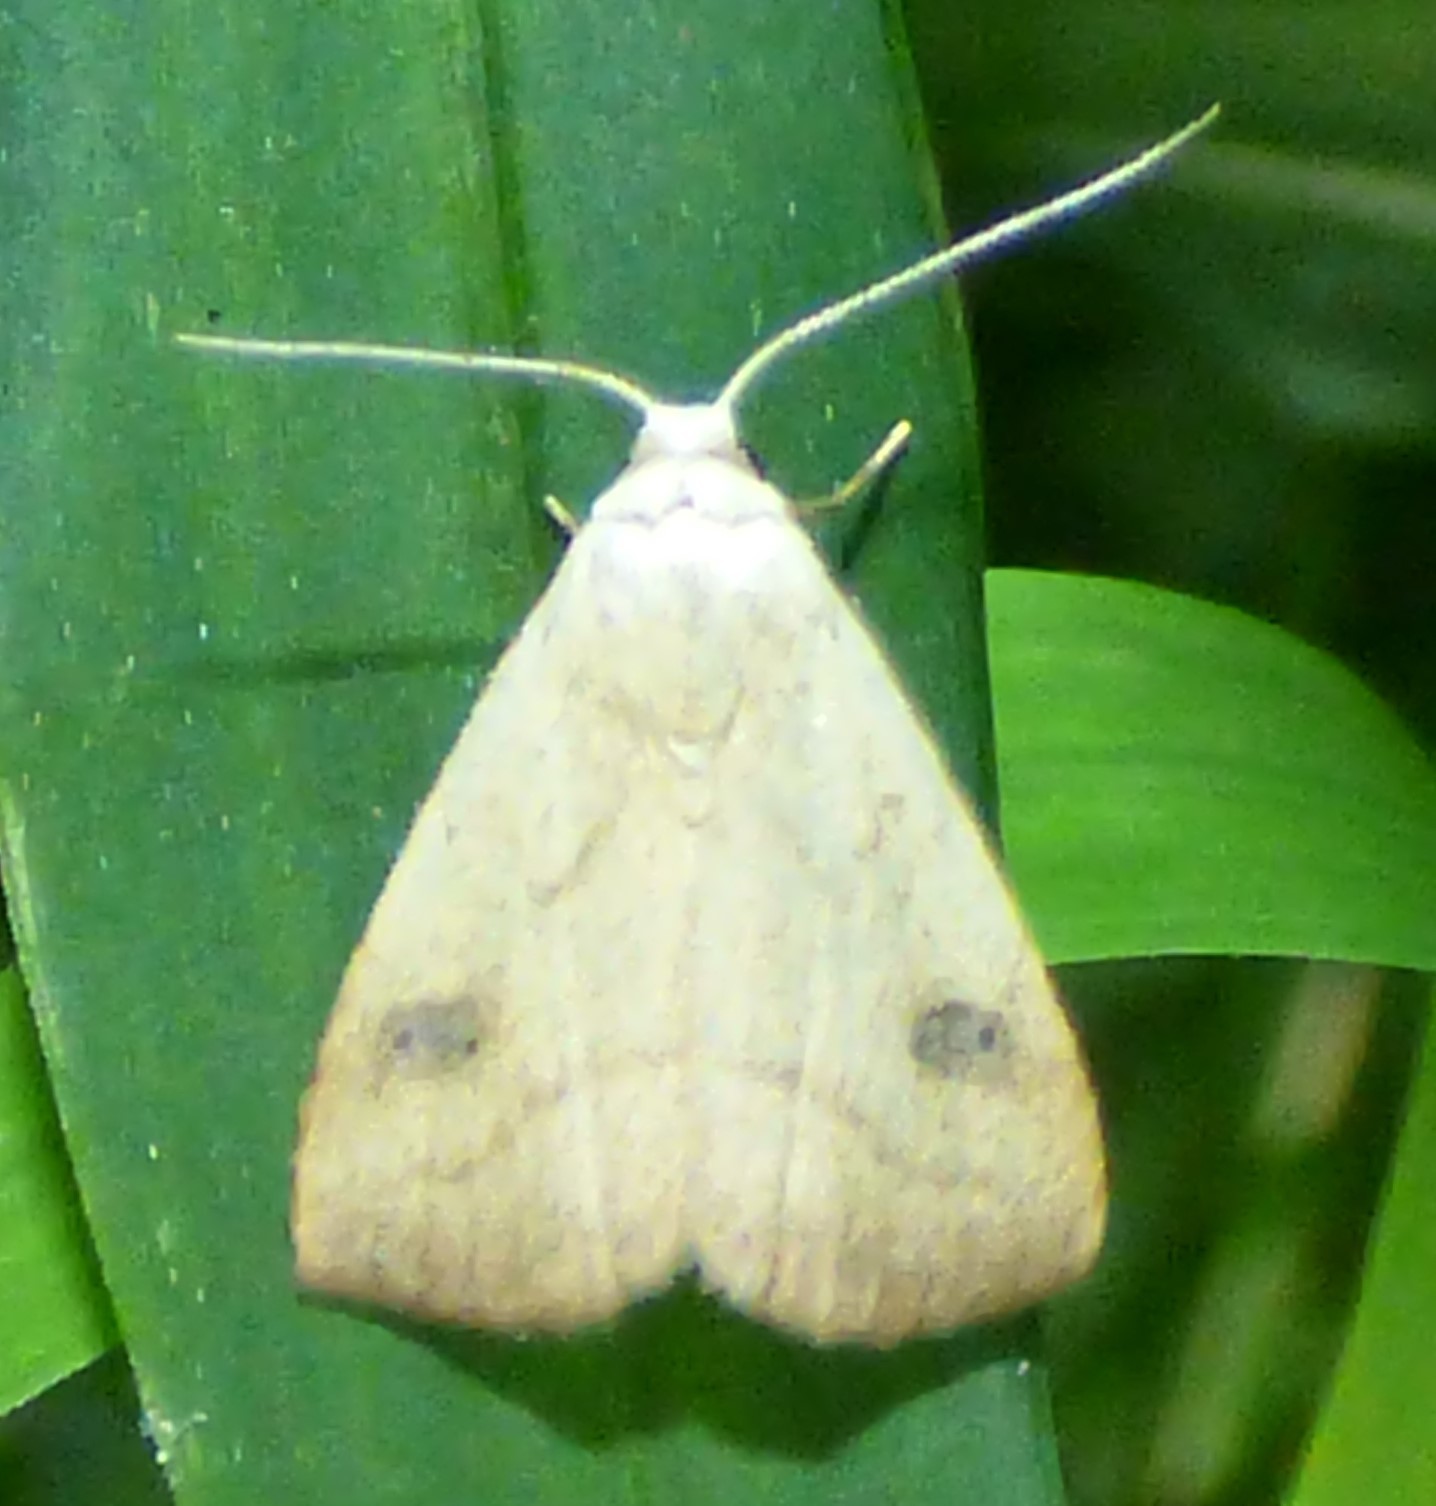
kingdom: Animalia
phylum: Arthropoda
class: Insecta
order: Lepidoptera
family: Erebidae
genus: Rivula
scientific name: Rivula propinqualis
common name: Spotted grass moth
